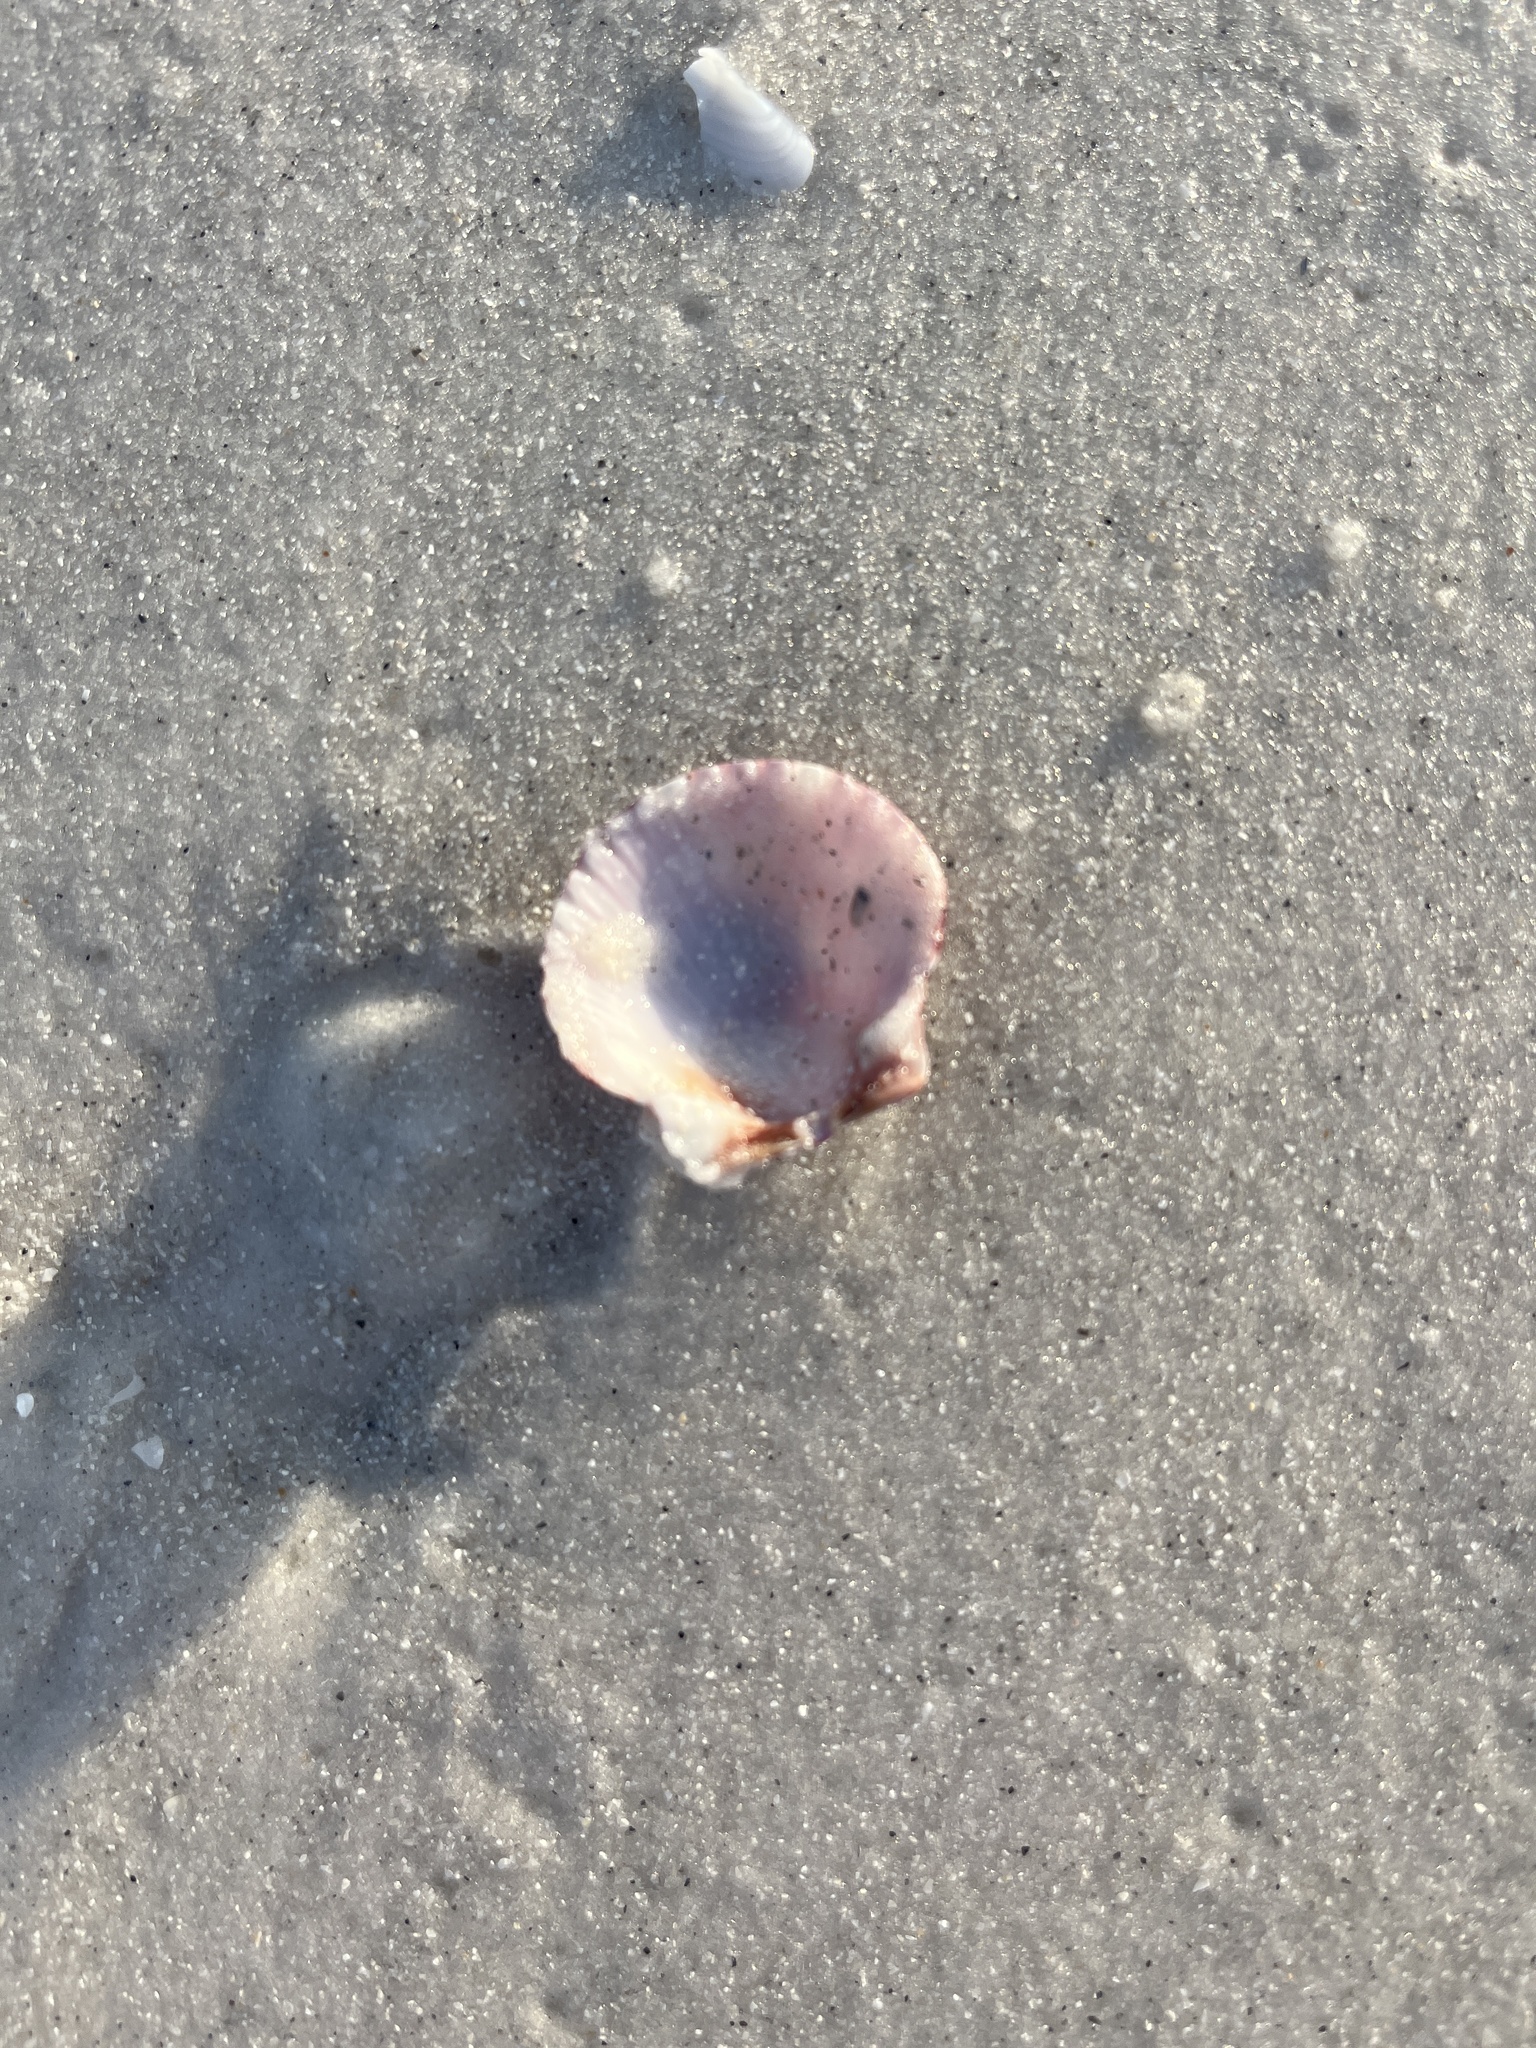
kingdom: Animalia
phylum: Mollusca
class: Bivalvia
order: Pectinida
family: Pectinidae
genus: Argopecten
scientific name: Argopecten gibbus
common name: Atlantic calico scallop
